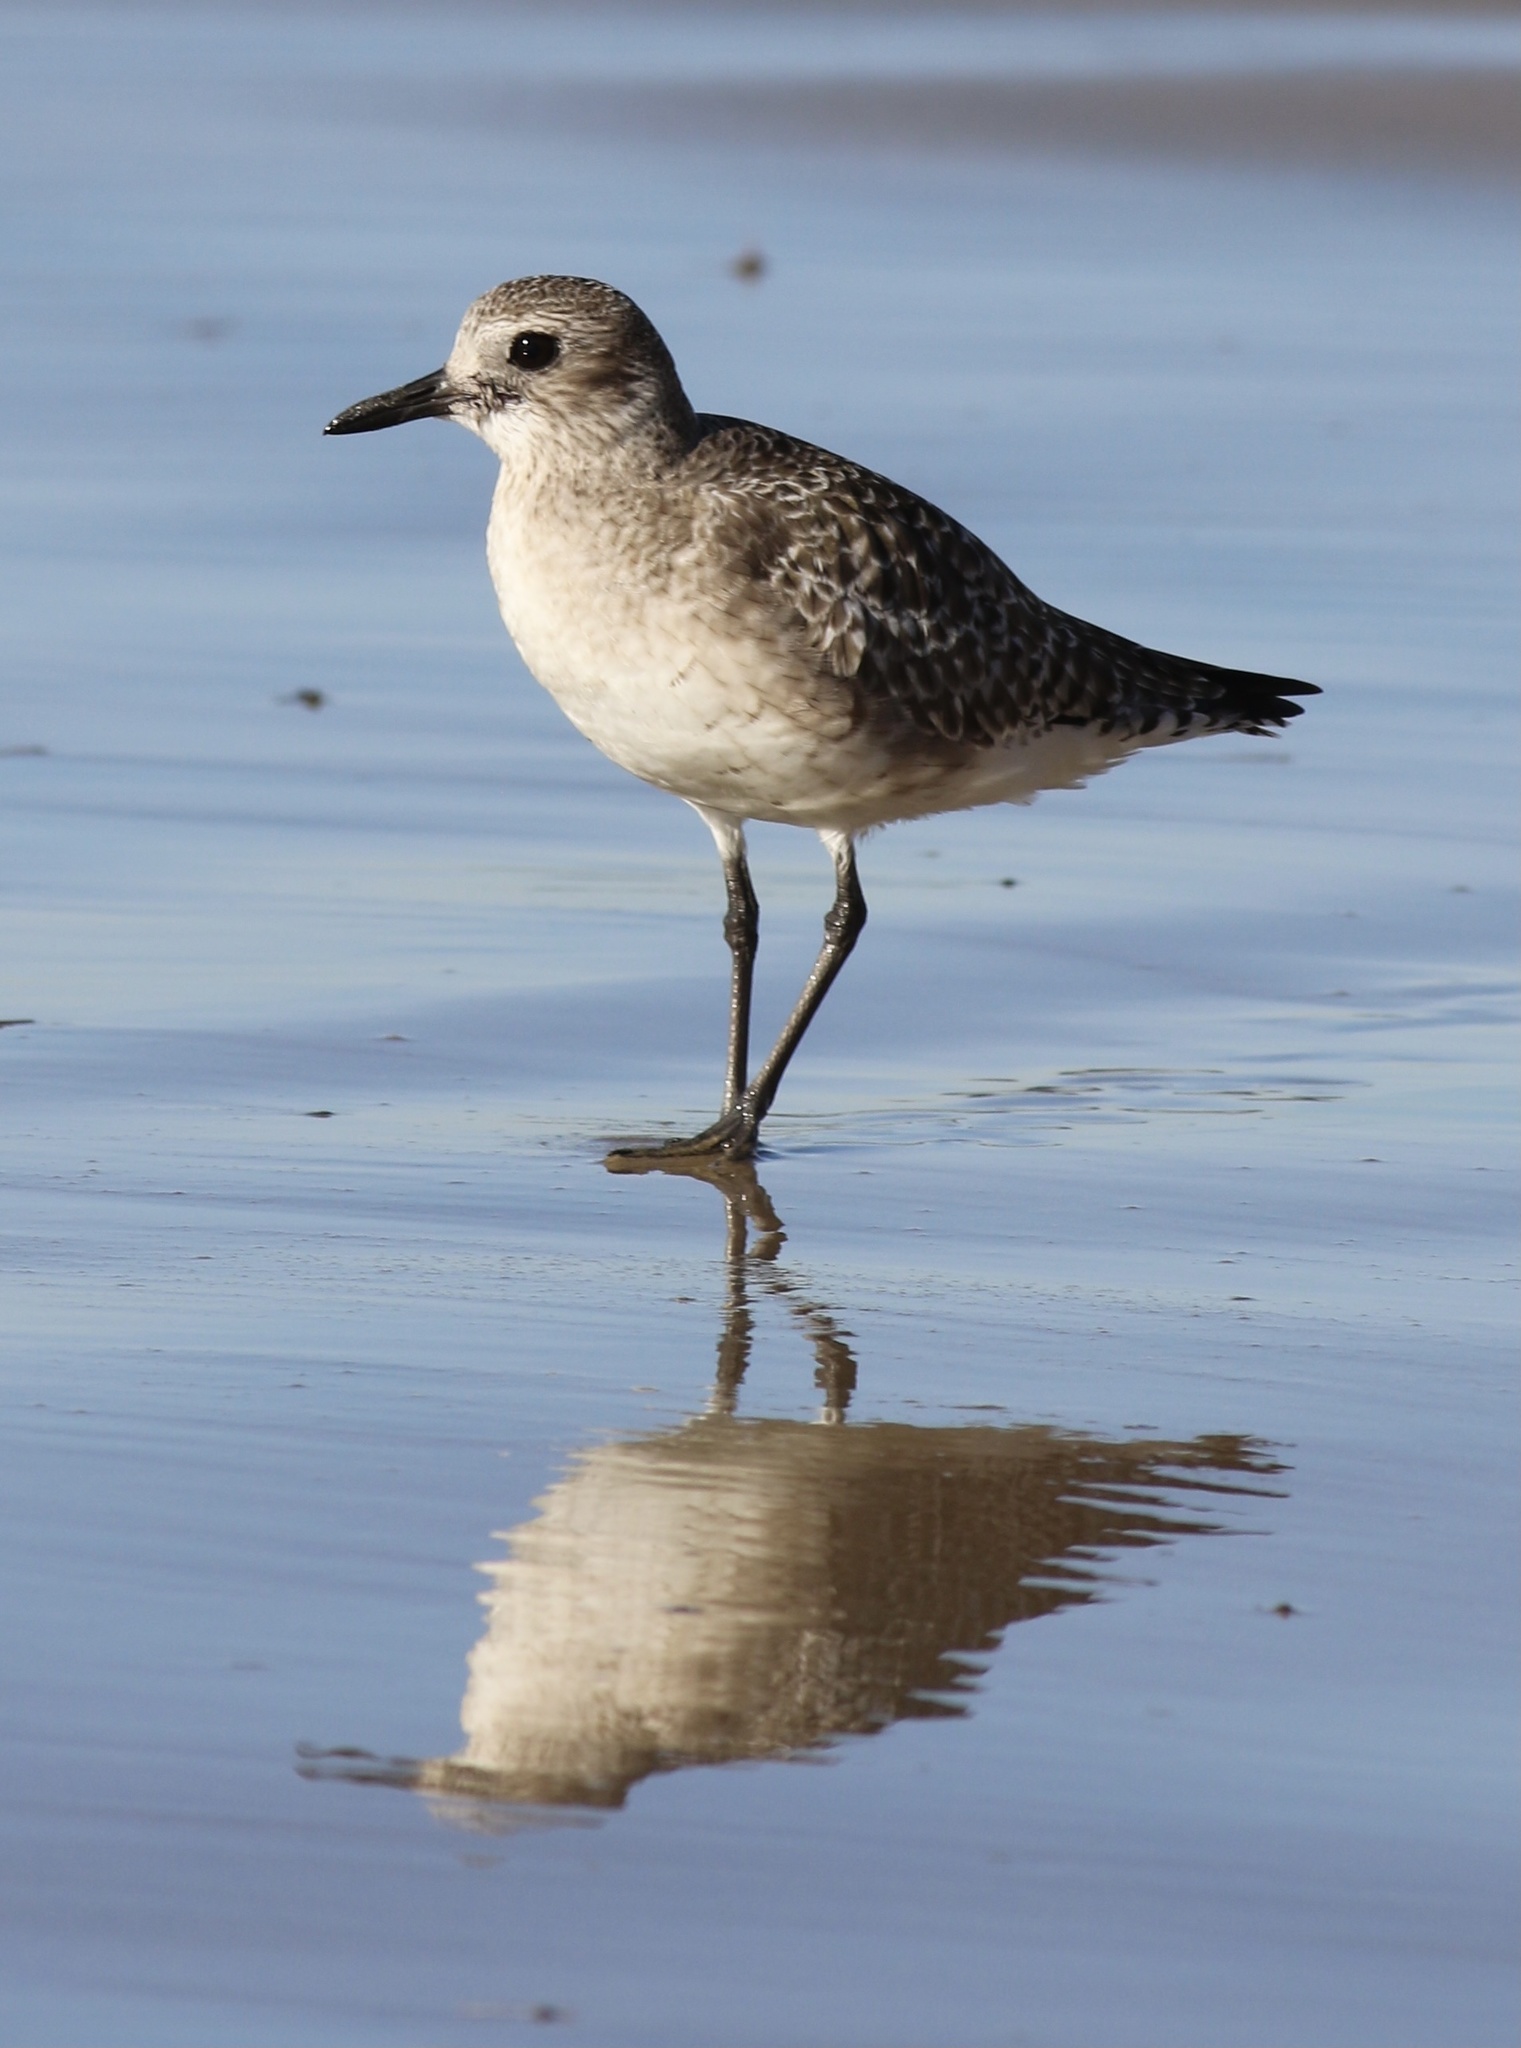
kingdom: Animalia
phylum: Chordata
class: Aves
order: Charadriiformes
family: Charadriidae
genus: Pluvialis
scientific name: Pluvialis squatarola
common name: Grey plover
